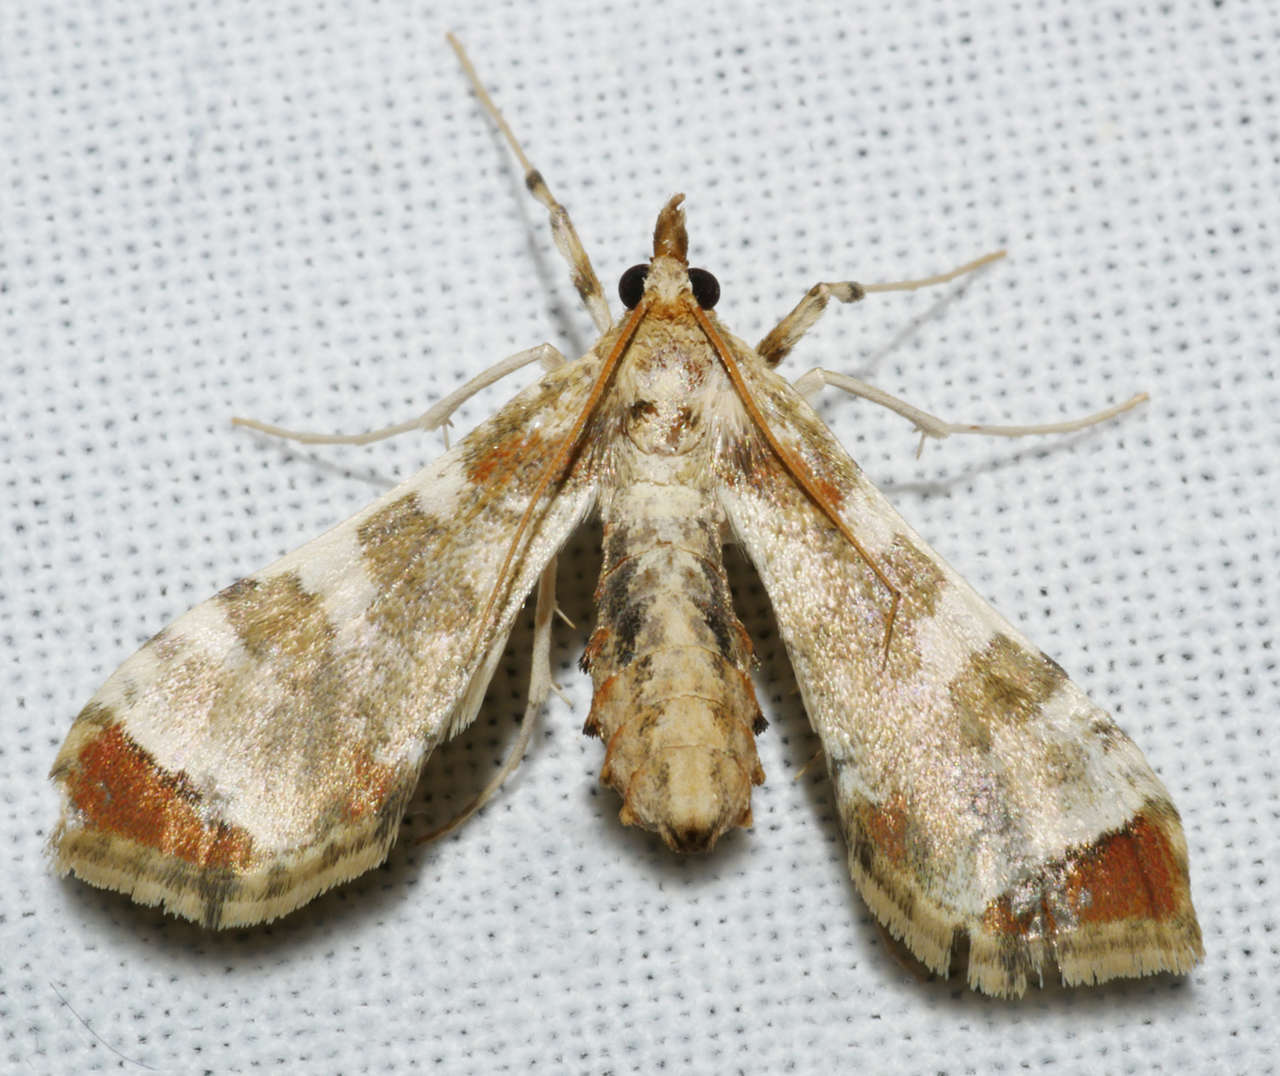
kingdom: Animalia
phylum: Arthropoda
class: Insecta
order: Lepidoptera
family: Crambidae
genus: Sceliodes
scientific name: Sceliodes cordalis
